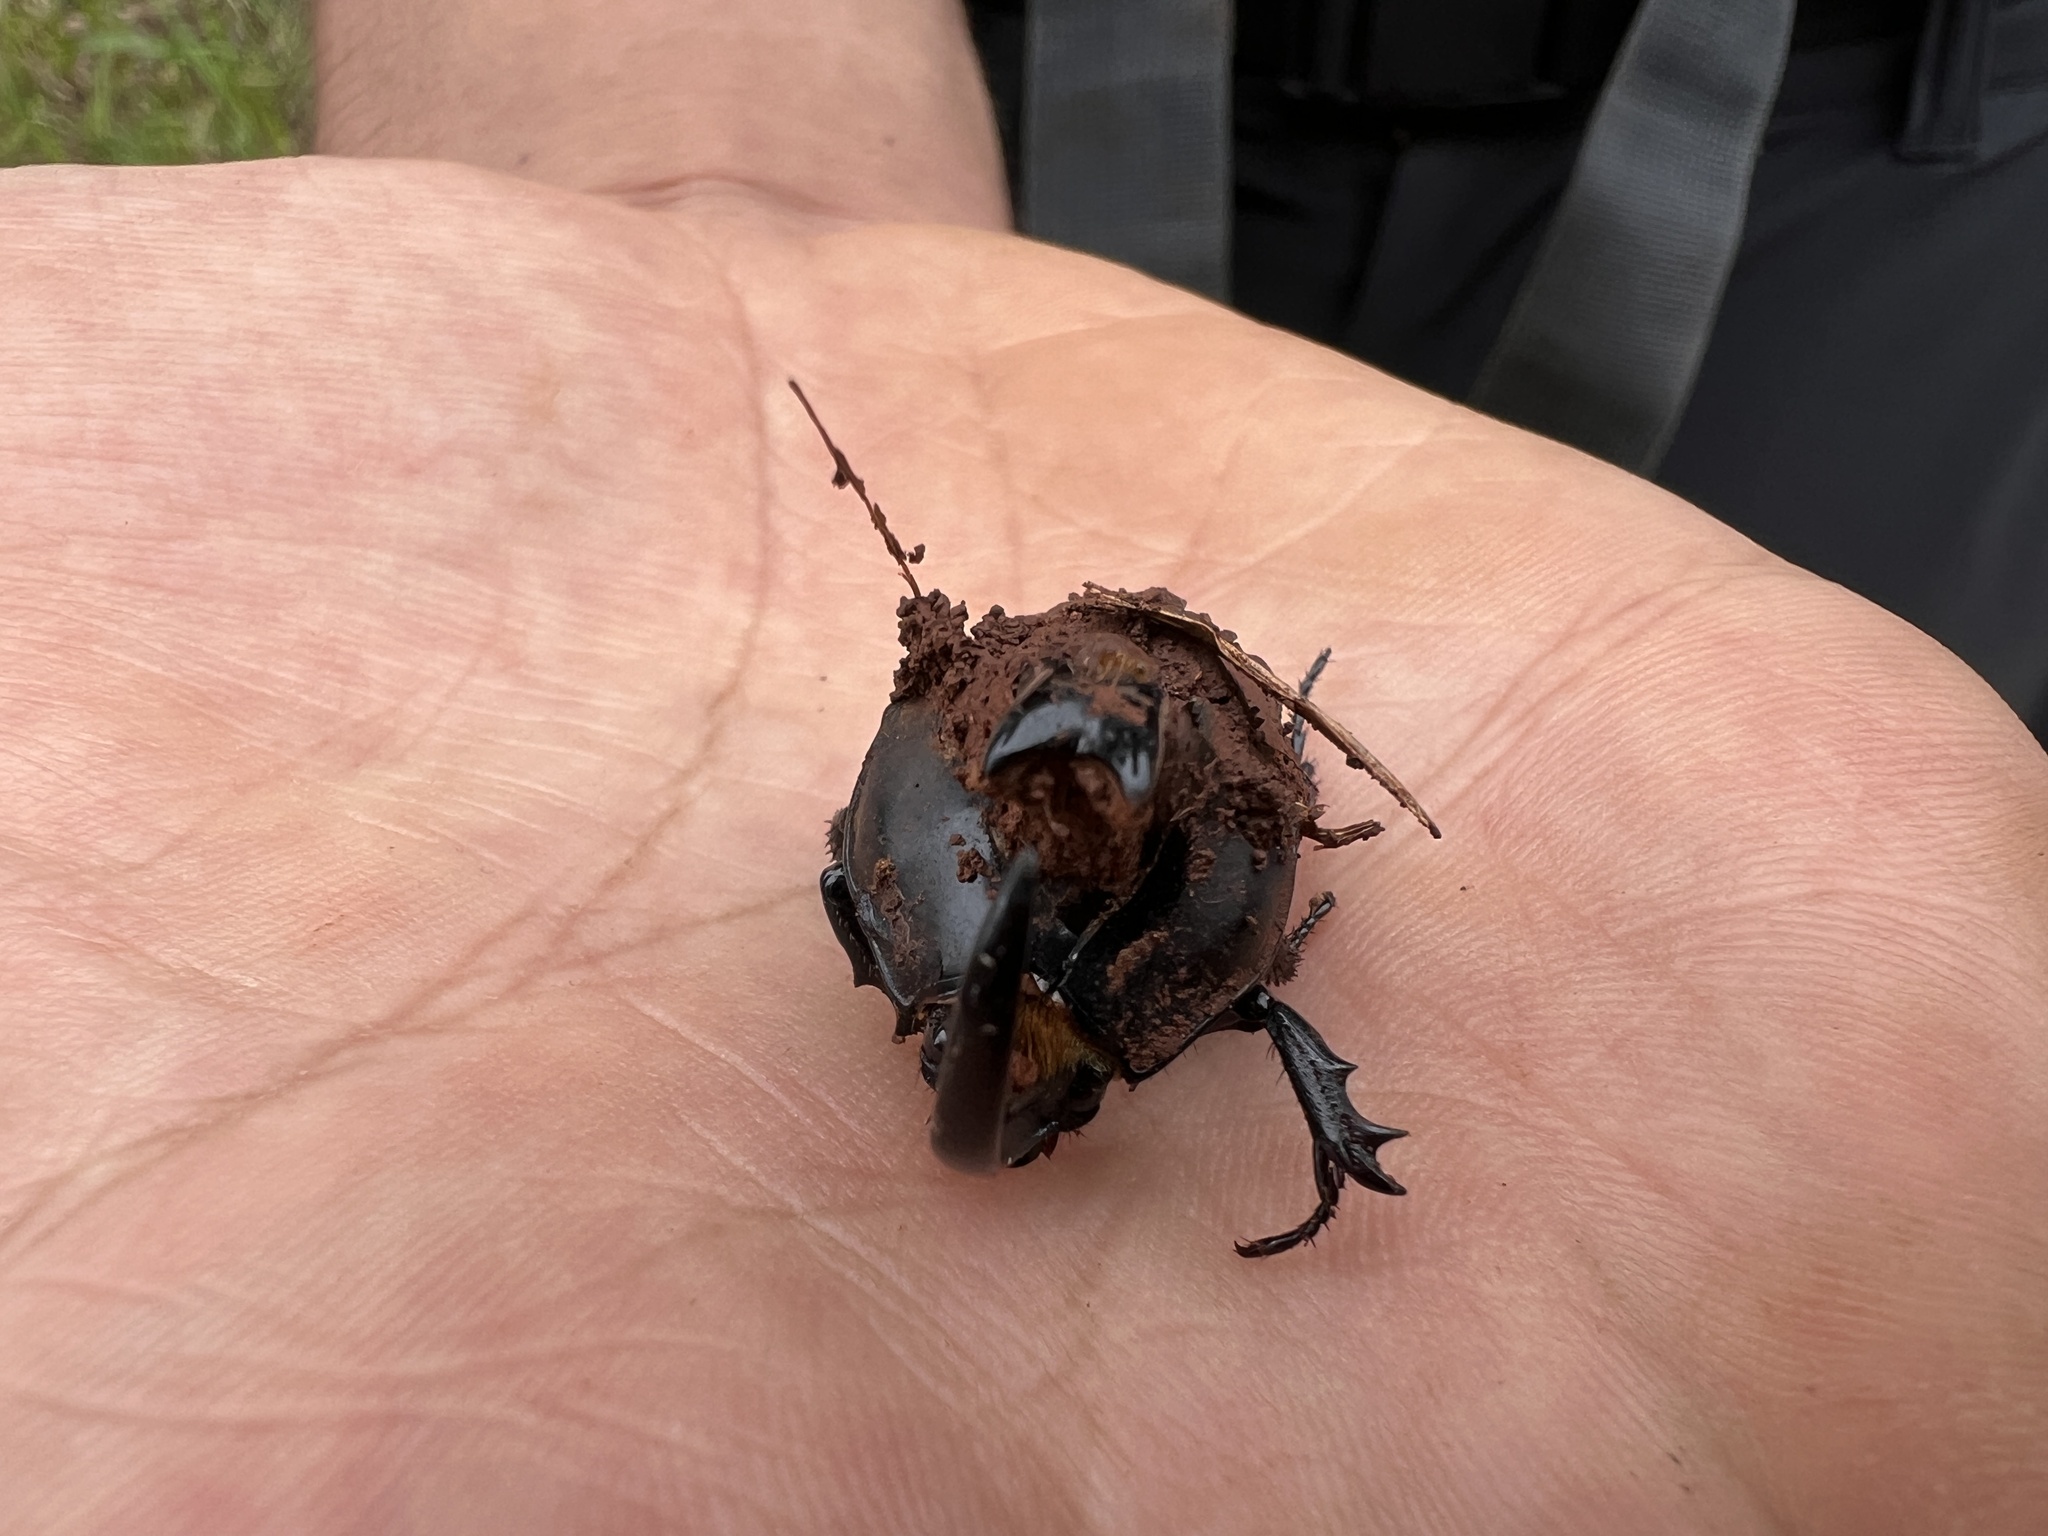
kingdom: Animalia
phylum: Arthropoda
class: Insecta
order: Coleoptera
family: Scarabaeidae
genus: Diloboderus
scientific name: Diloboderus abderus
